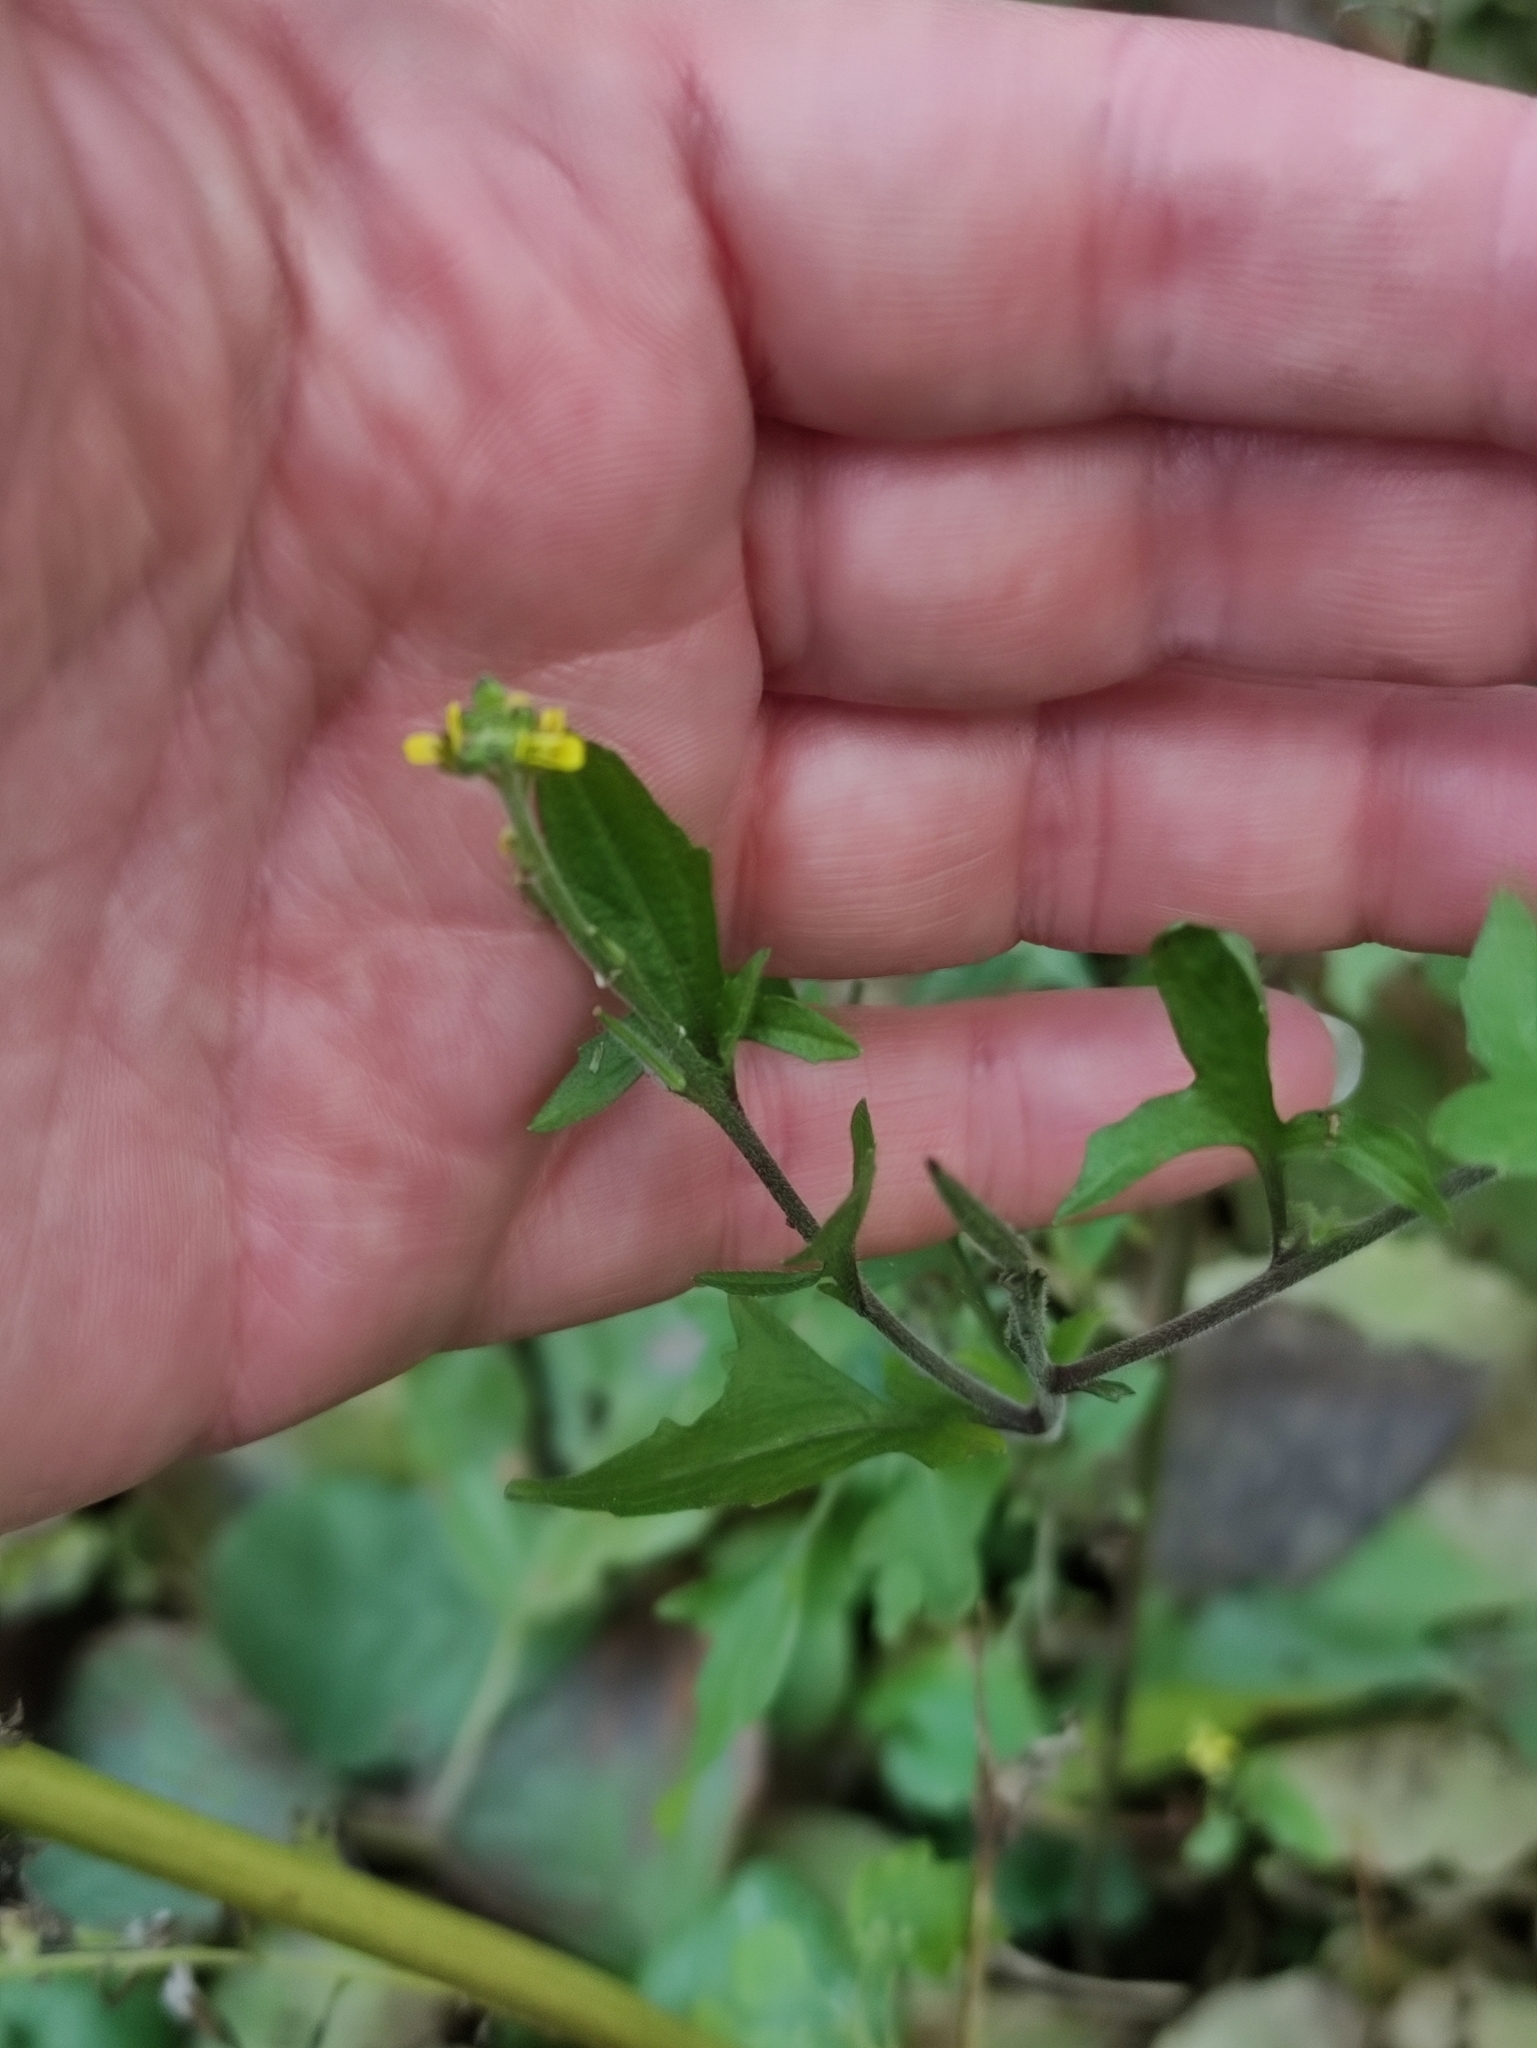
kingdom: Plantae
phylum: Tracheophyta
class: Magnoliopsida
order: Brassicales
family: Brassicaceae
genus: Sisymbrium
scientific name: Sisymbrium officinale
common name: Hedge mustard
